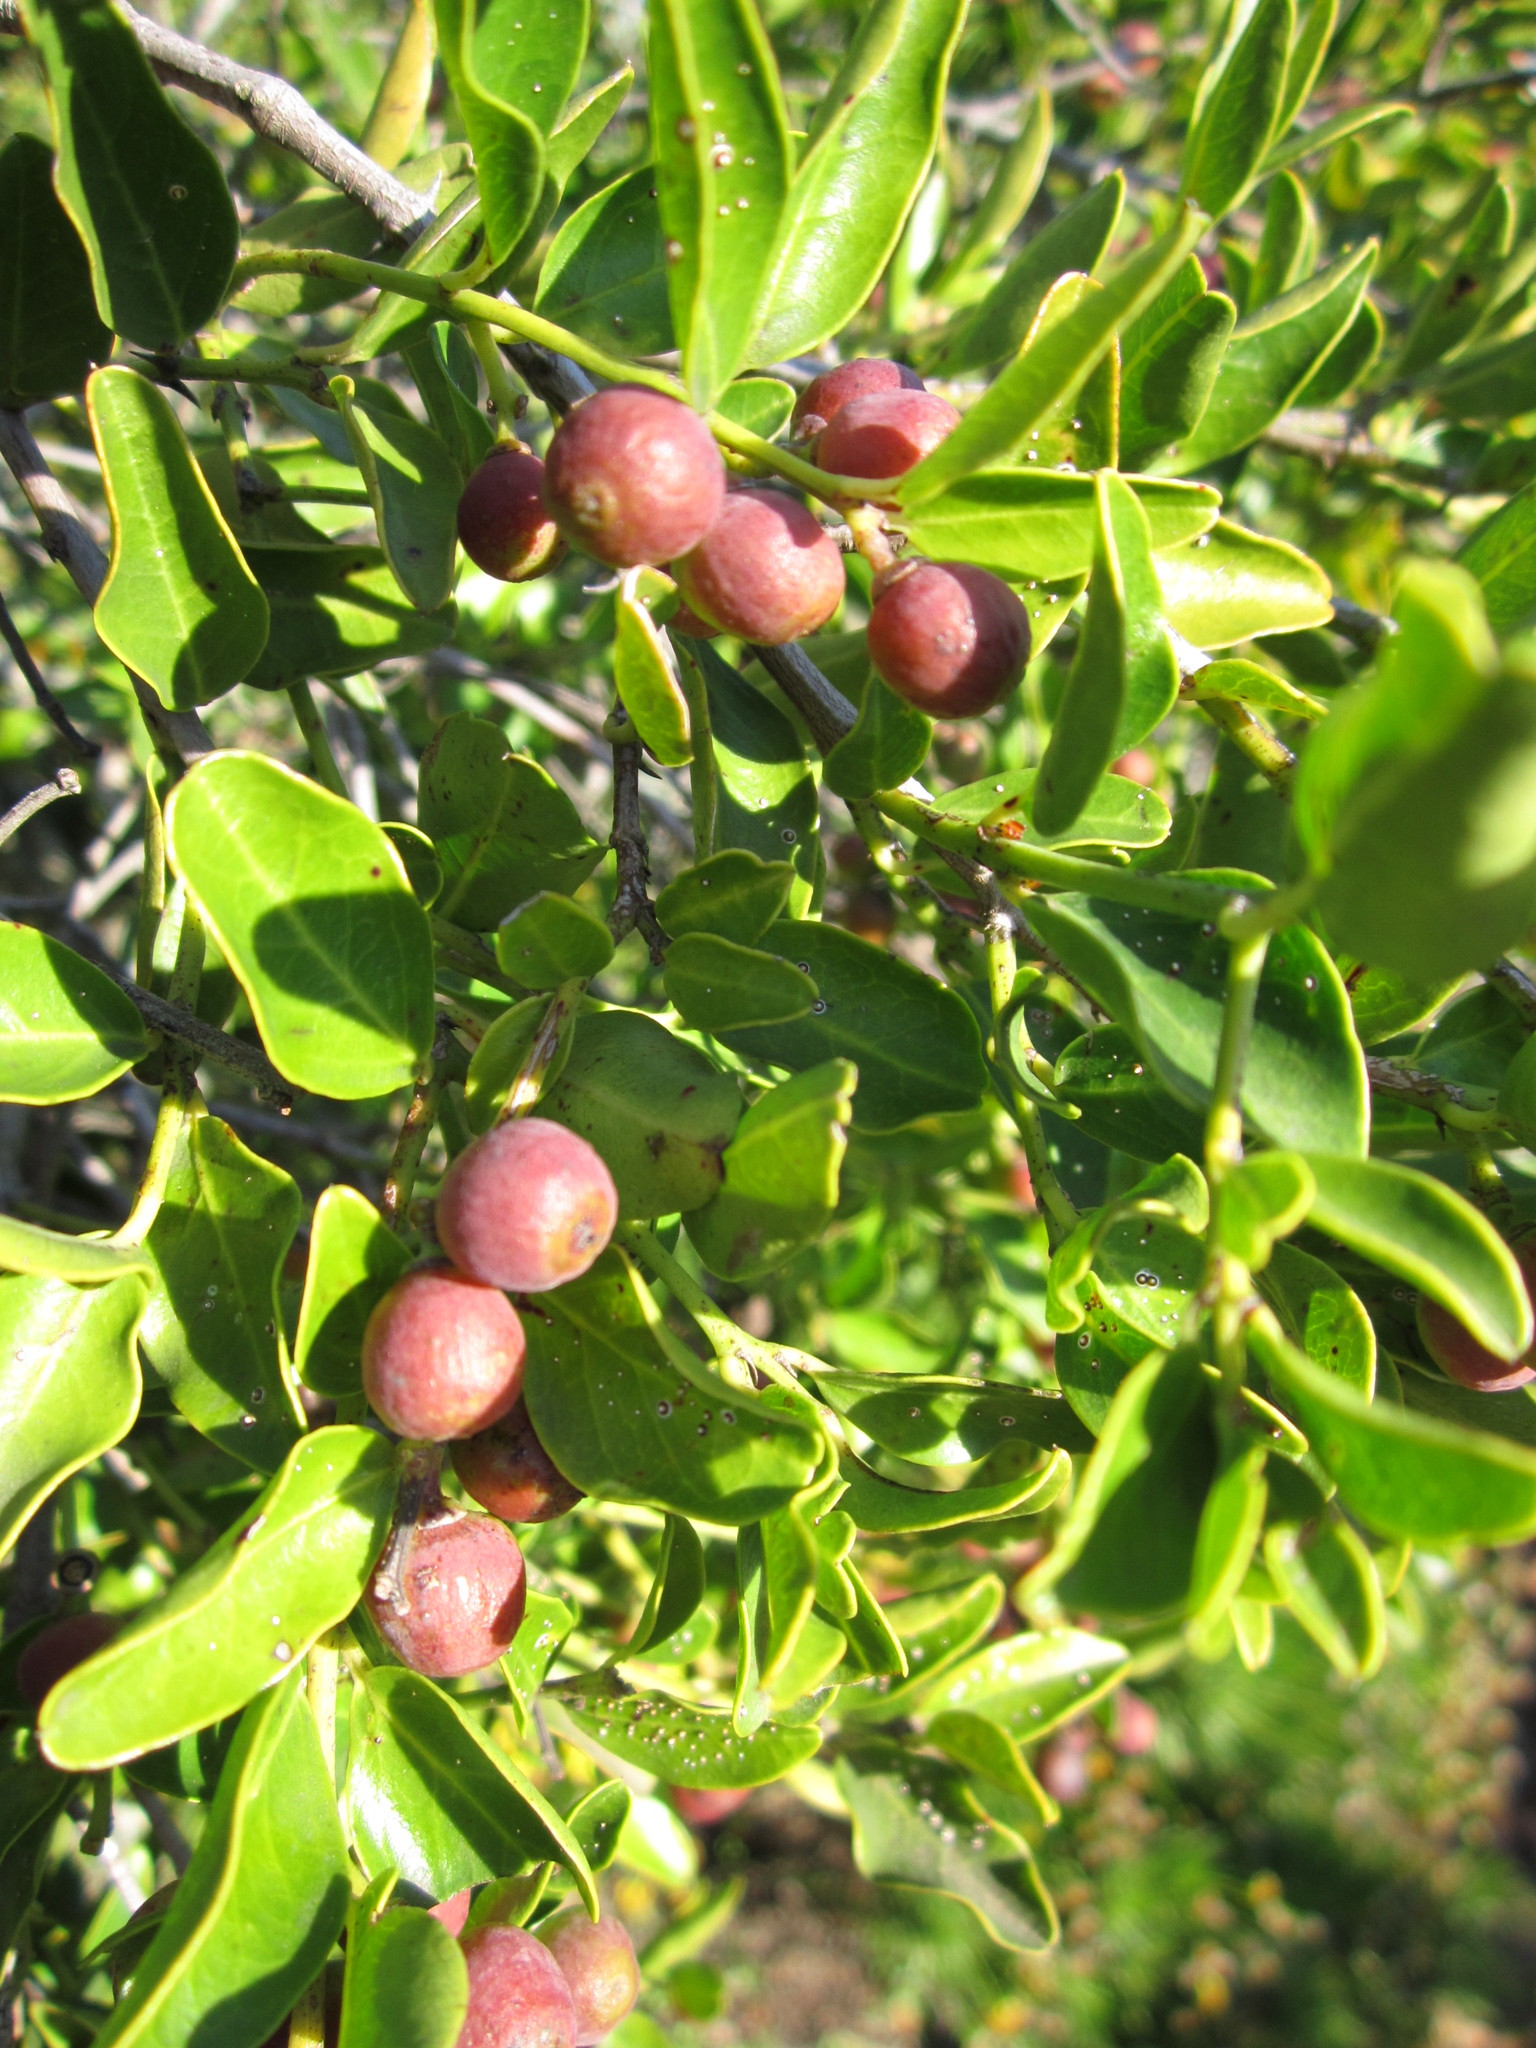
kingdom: Plantae
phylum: Tracheophyta
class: Magnoliopsida
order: Rosales
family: Rhamnaceae
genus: Scutia
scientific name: Scutia myrtina
